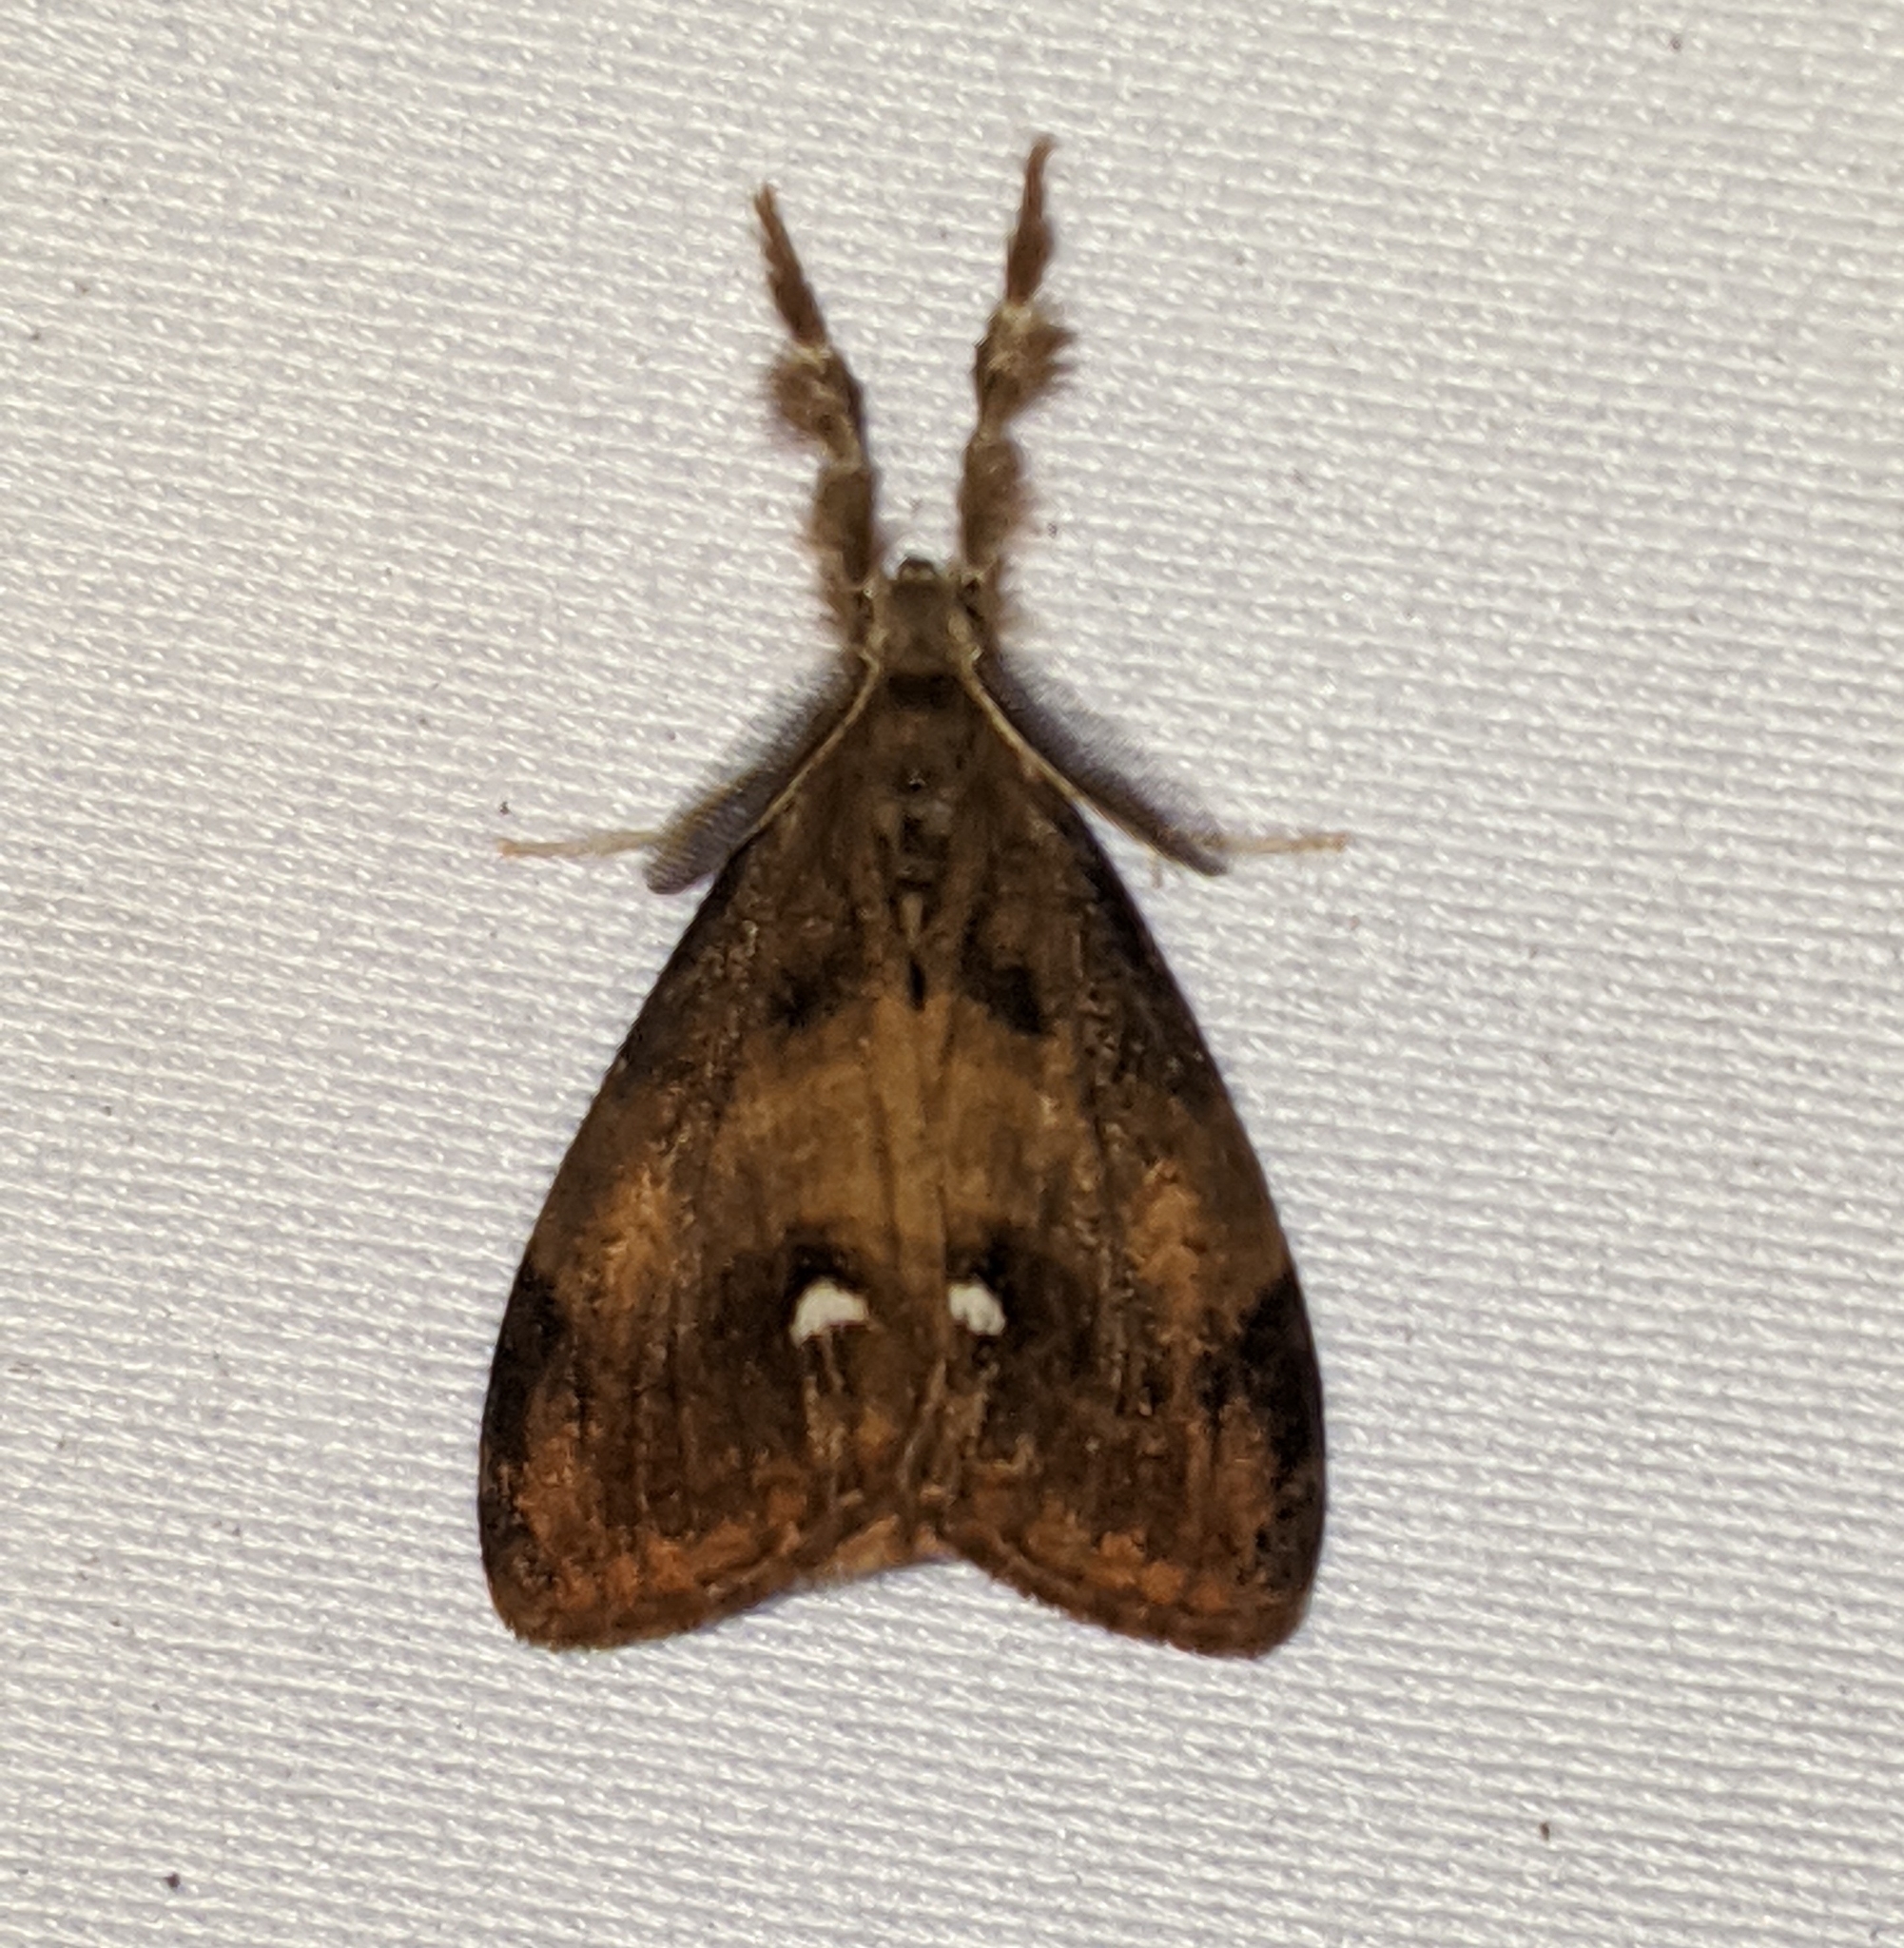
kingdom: Animalia
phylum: Arthropoda
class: Insecta
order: Lepidoptera
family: Erebidae
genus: Orgyia
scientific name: Orgyia antiqua
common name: Vapourer
